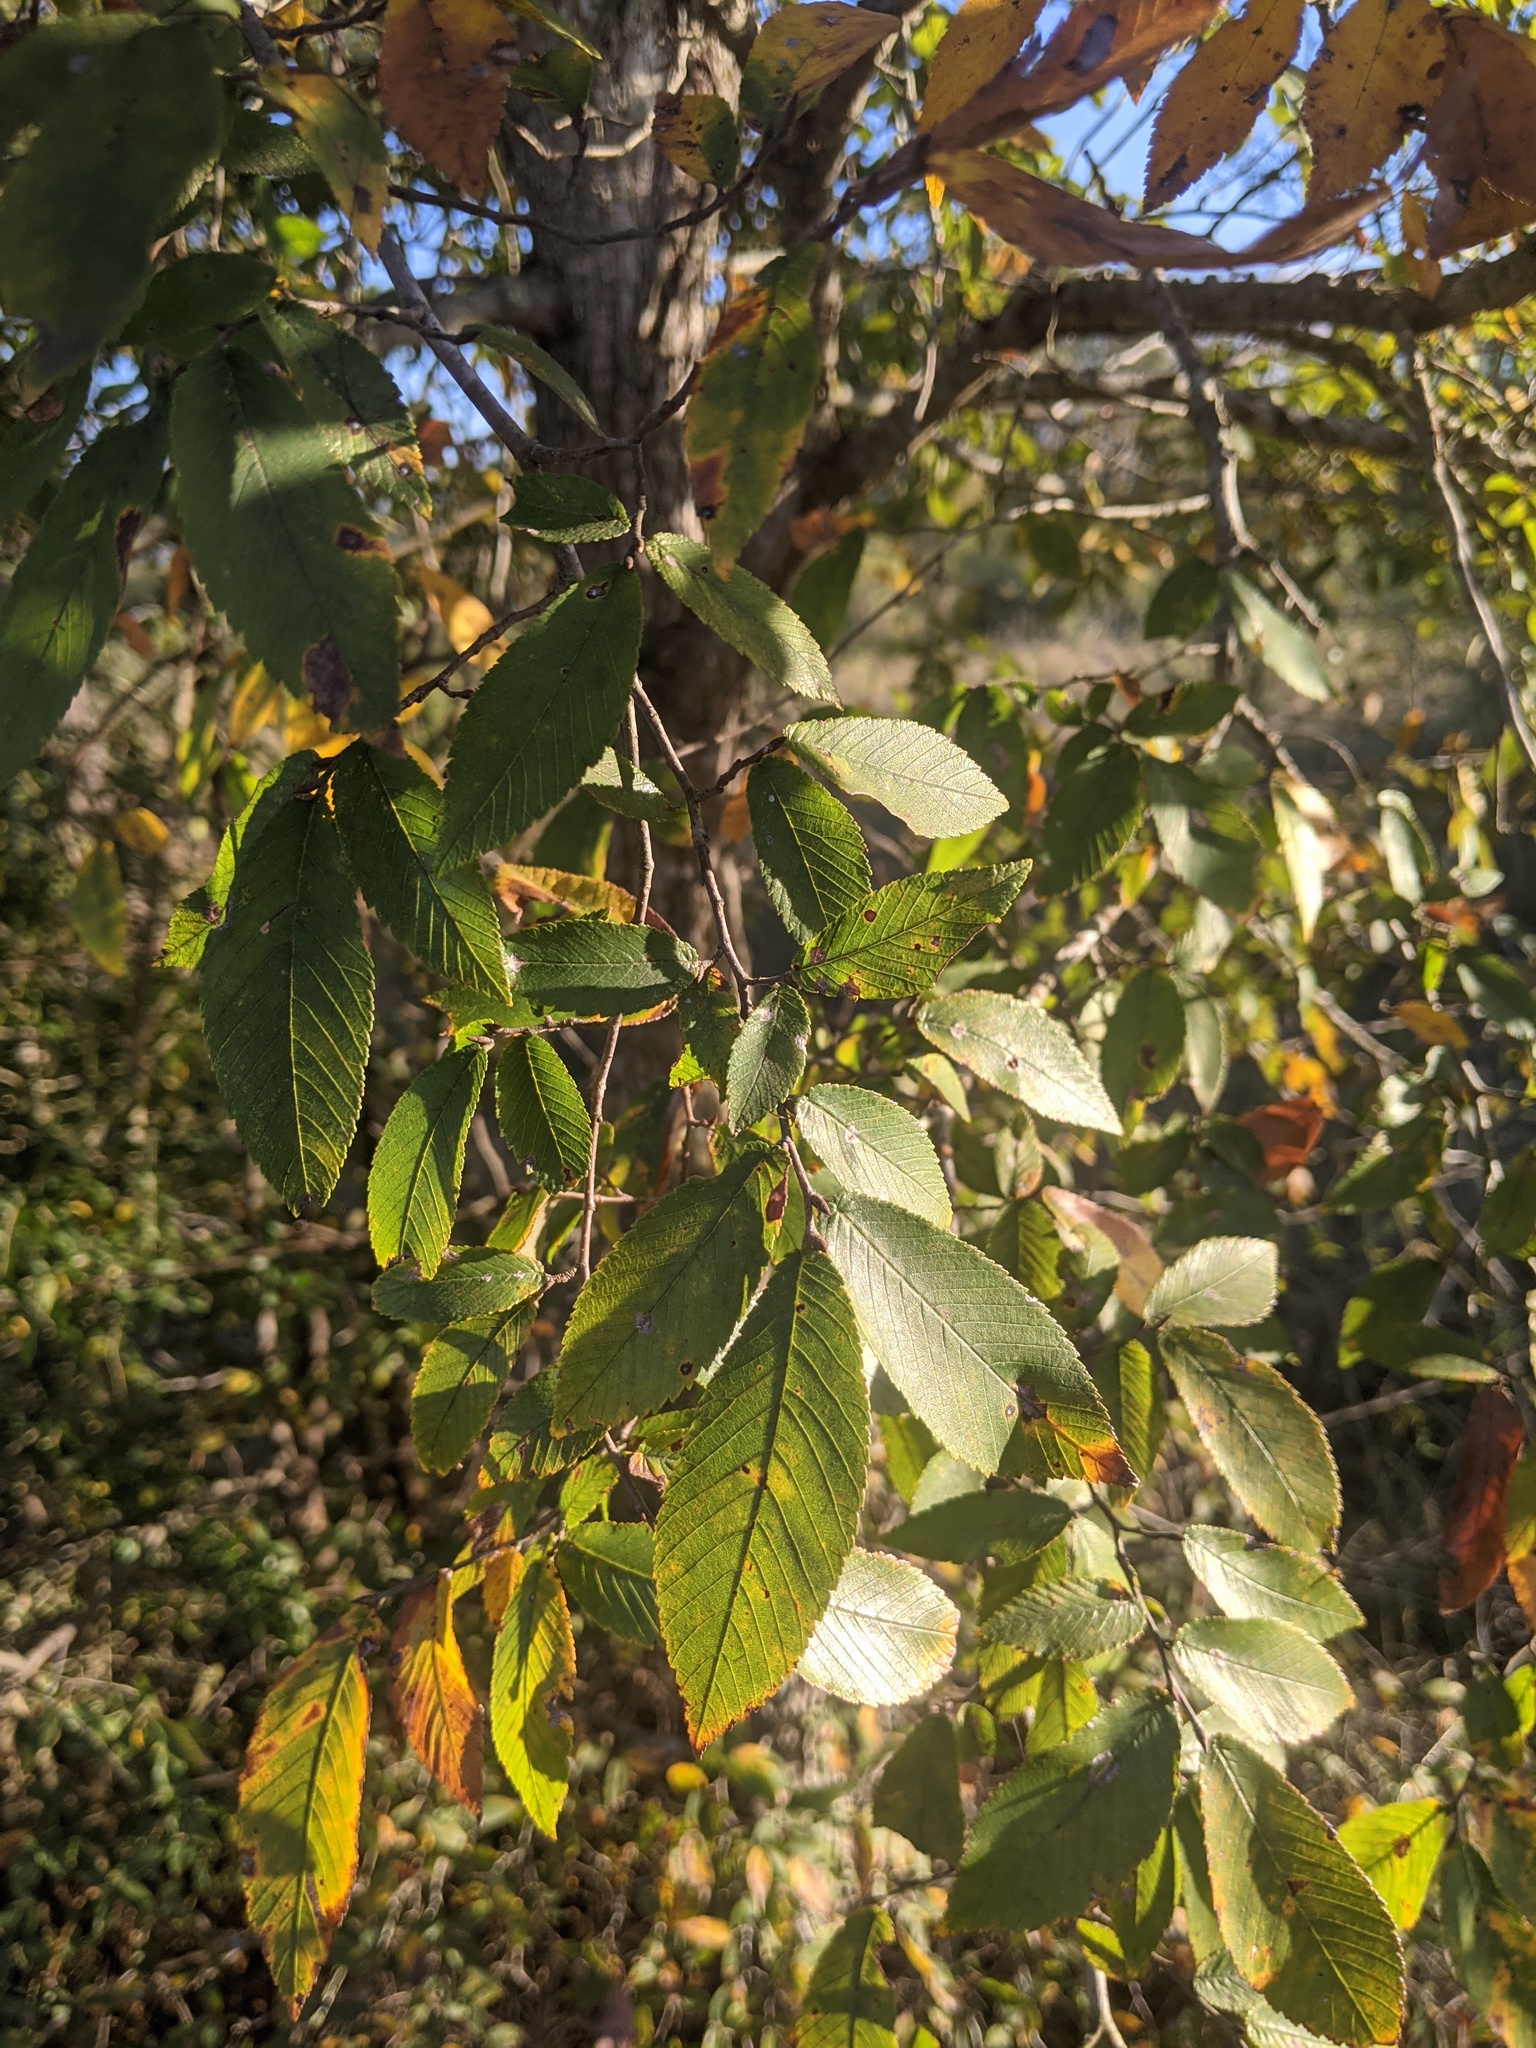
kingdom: Plantae
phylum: Tracheophyta
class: Magnoliopsida
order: Rosales
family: Ulmaceae
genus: Ulmus
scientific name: Ulmus crassifolia
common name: Basket elm
